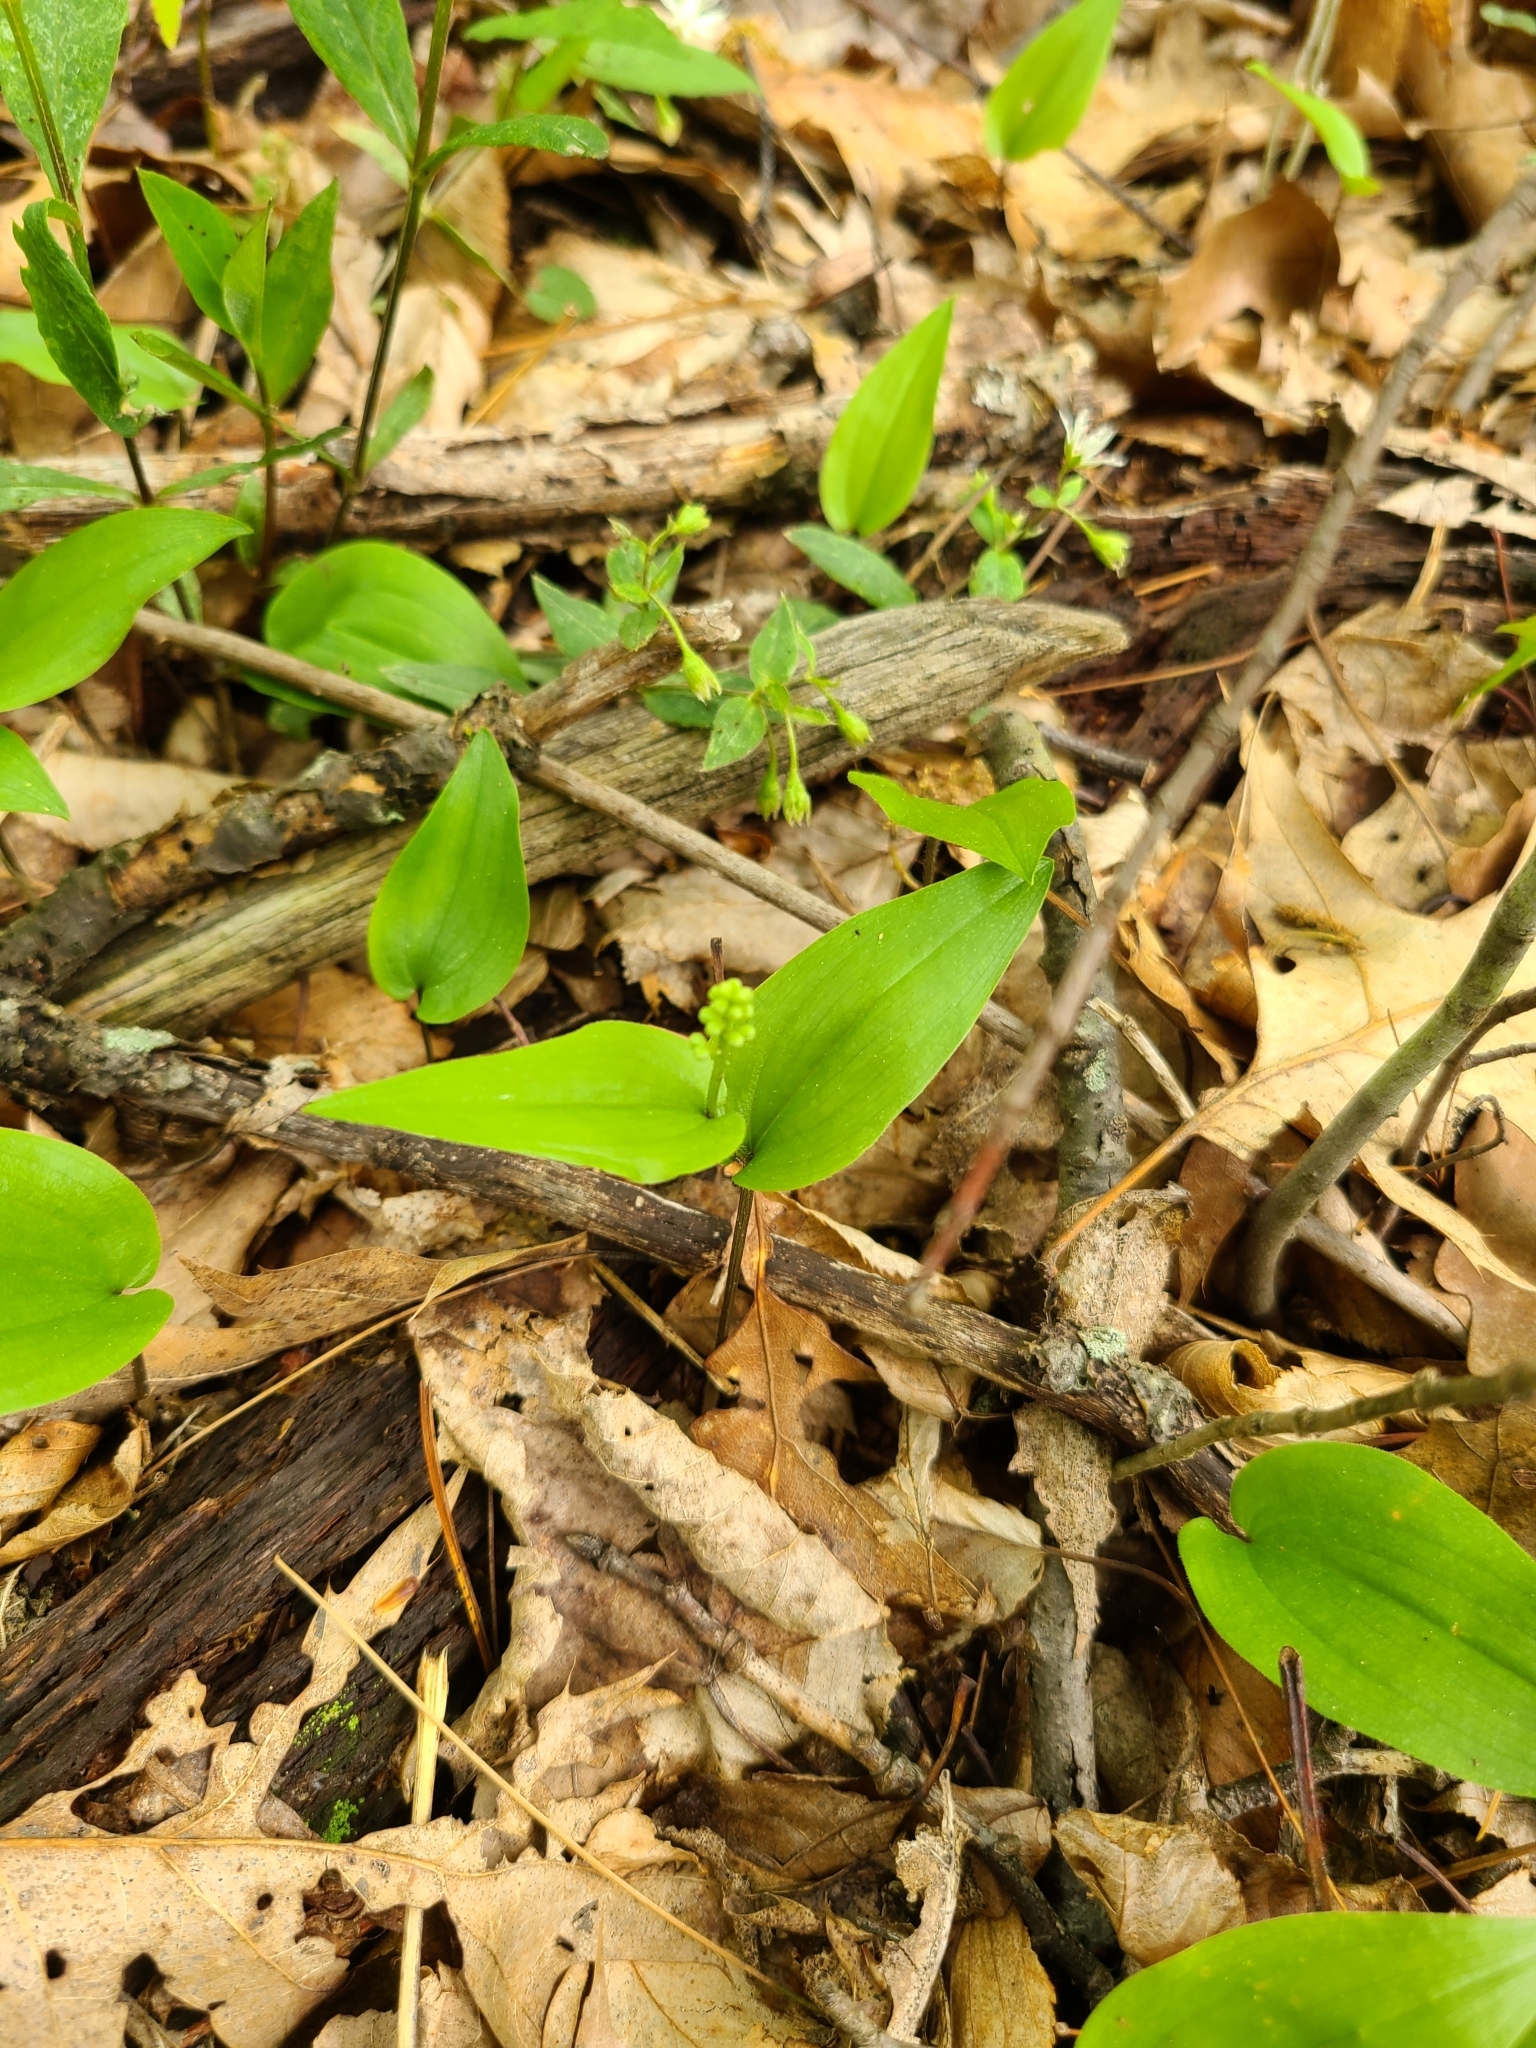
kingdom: Plantae
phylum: Tracheophyta
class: Liliopsida
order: Asparagales
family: Asparagaceae
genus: Maianthemum
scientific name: Maianthemum canadense
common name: False lily-of-the-valley
